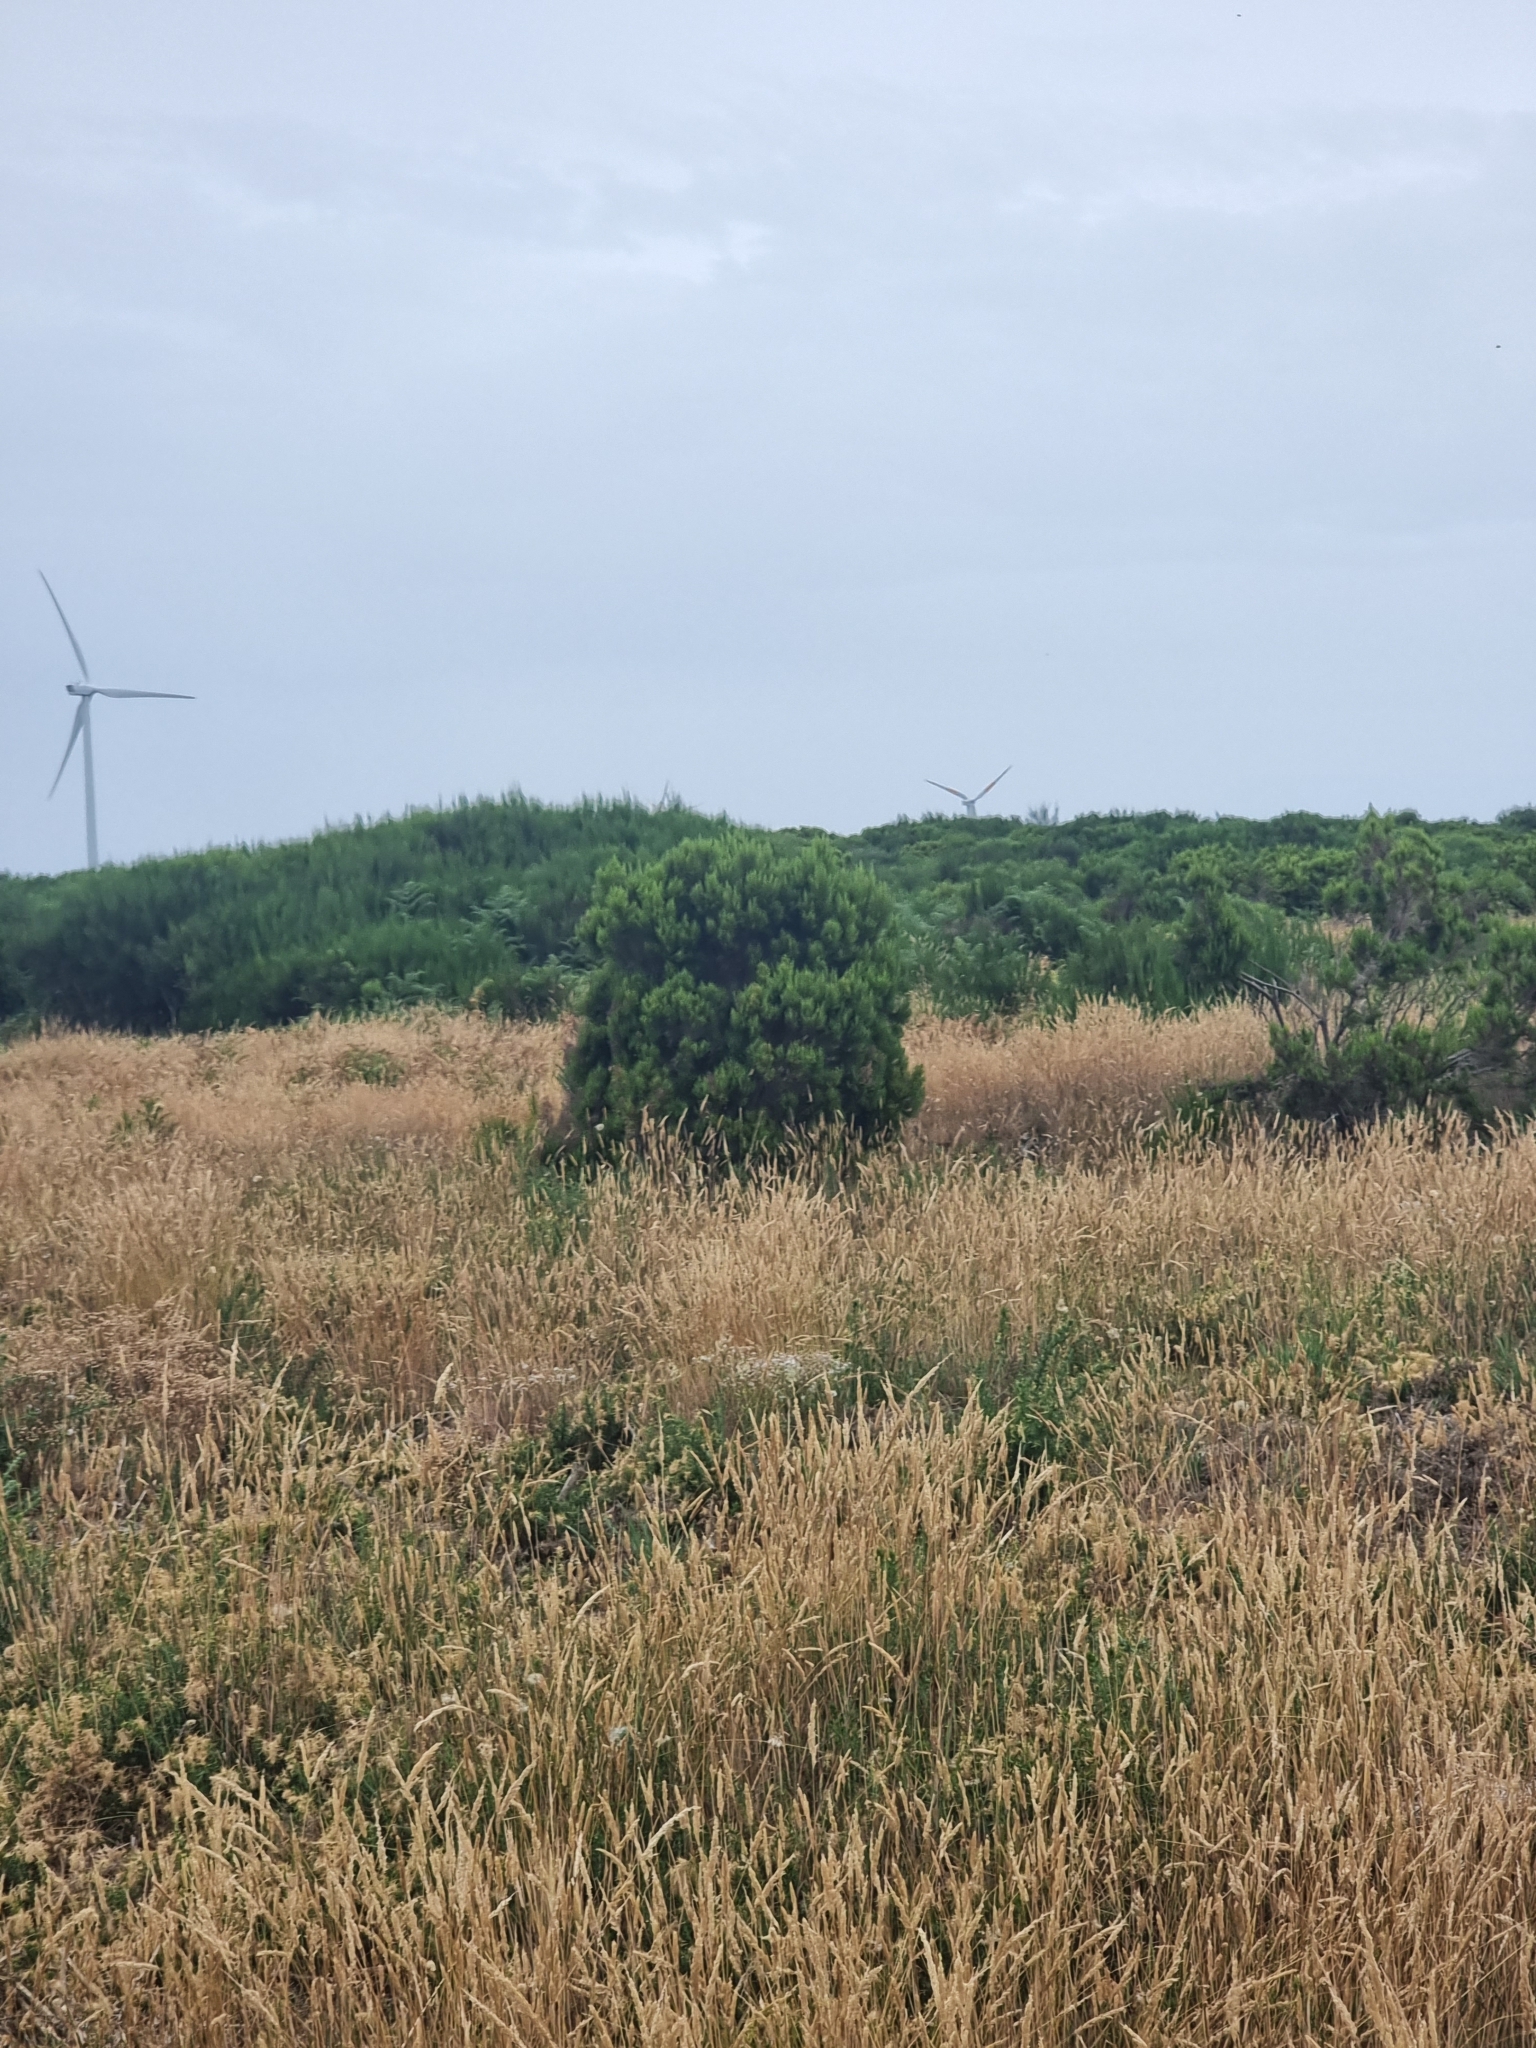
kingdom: Plantae
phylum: Tracheophyta
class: Magnoliopsida
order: Ericales
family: Ericaceae
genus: Erica
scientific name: Erica canariensis
